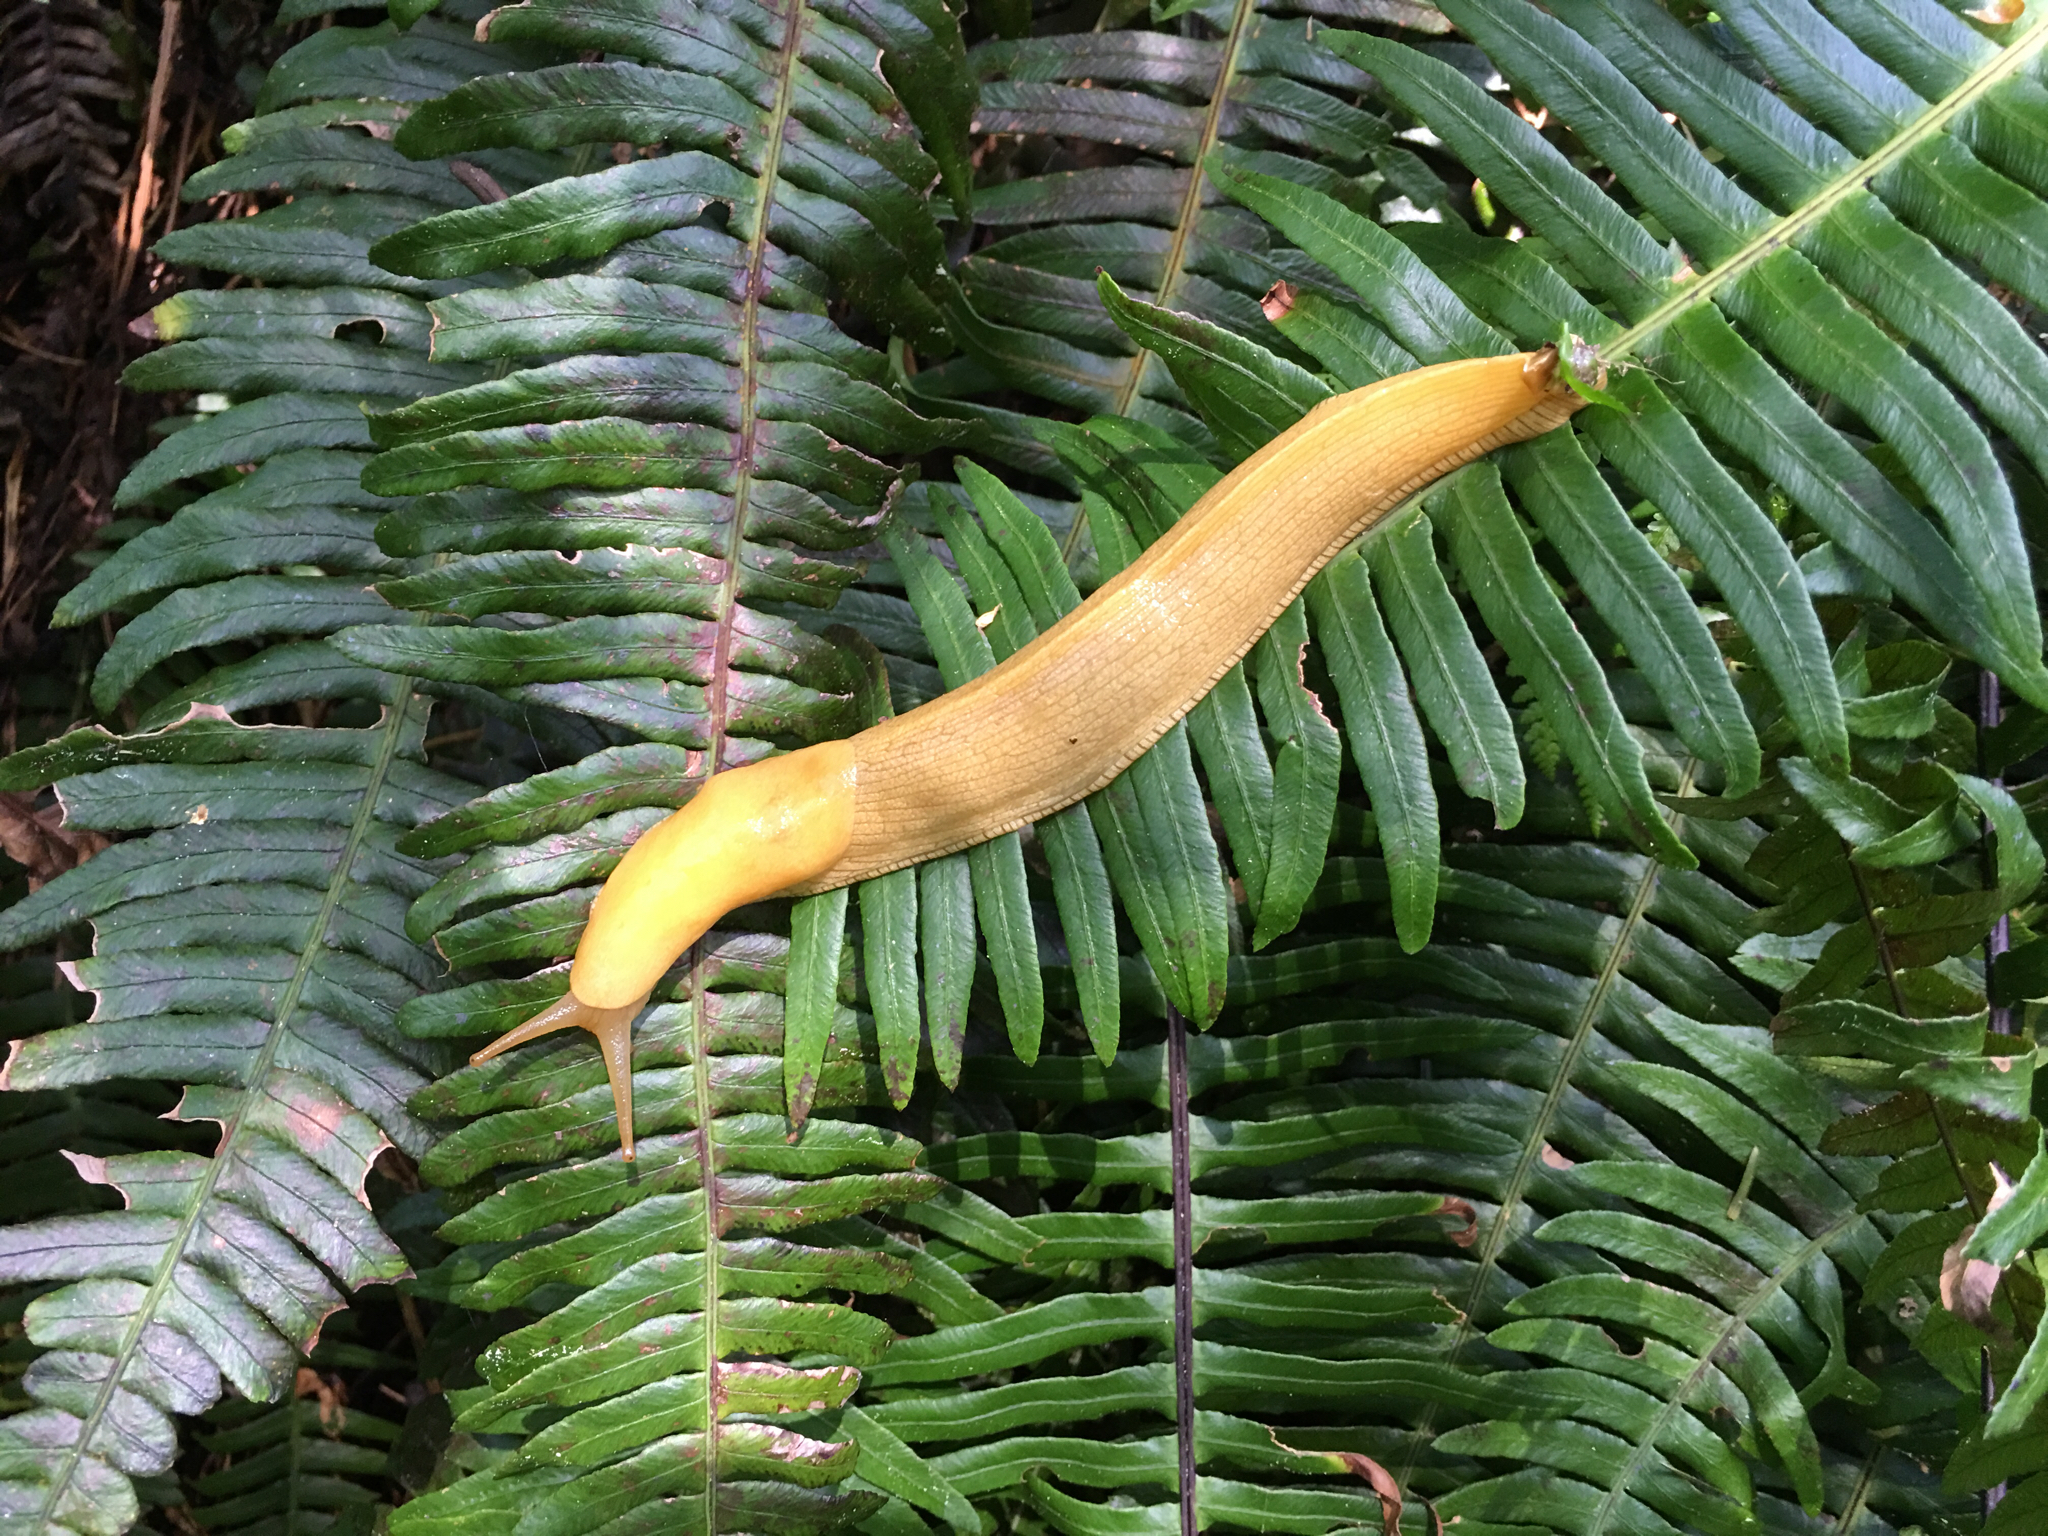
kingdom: Plantae
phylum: Tracheophyta
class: Polypodiopsida
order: Polypodiales
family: Dryopteridaceae
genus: Polystichum
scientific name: Polystichum munitum
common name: Western sword-fern
